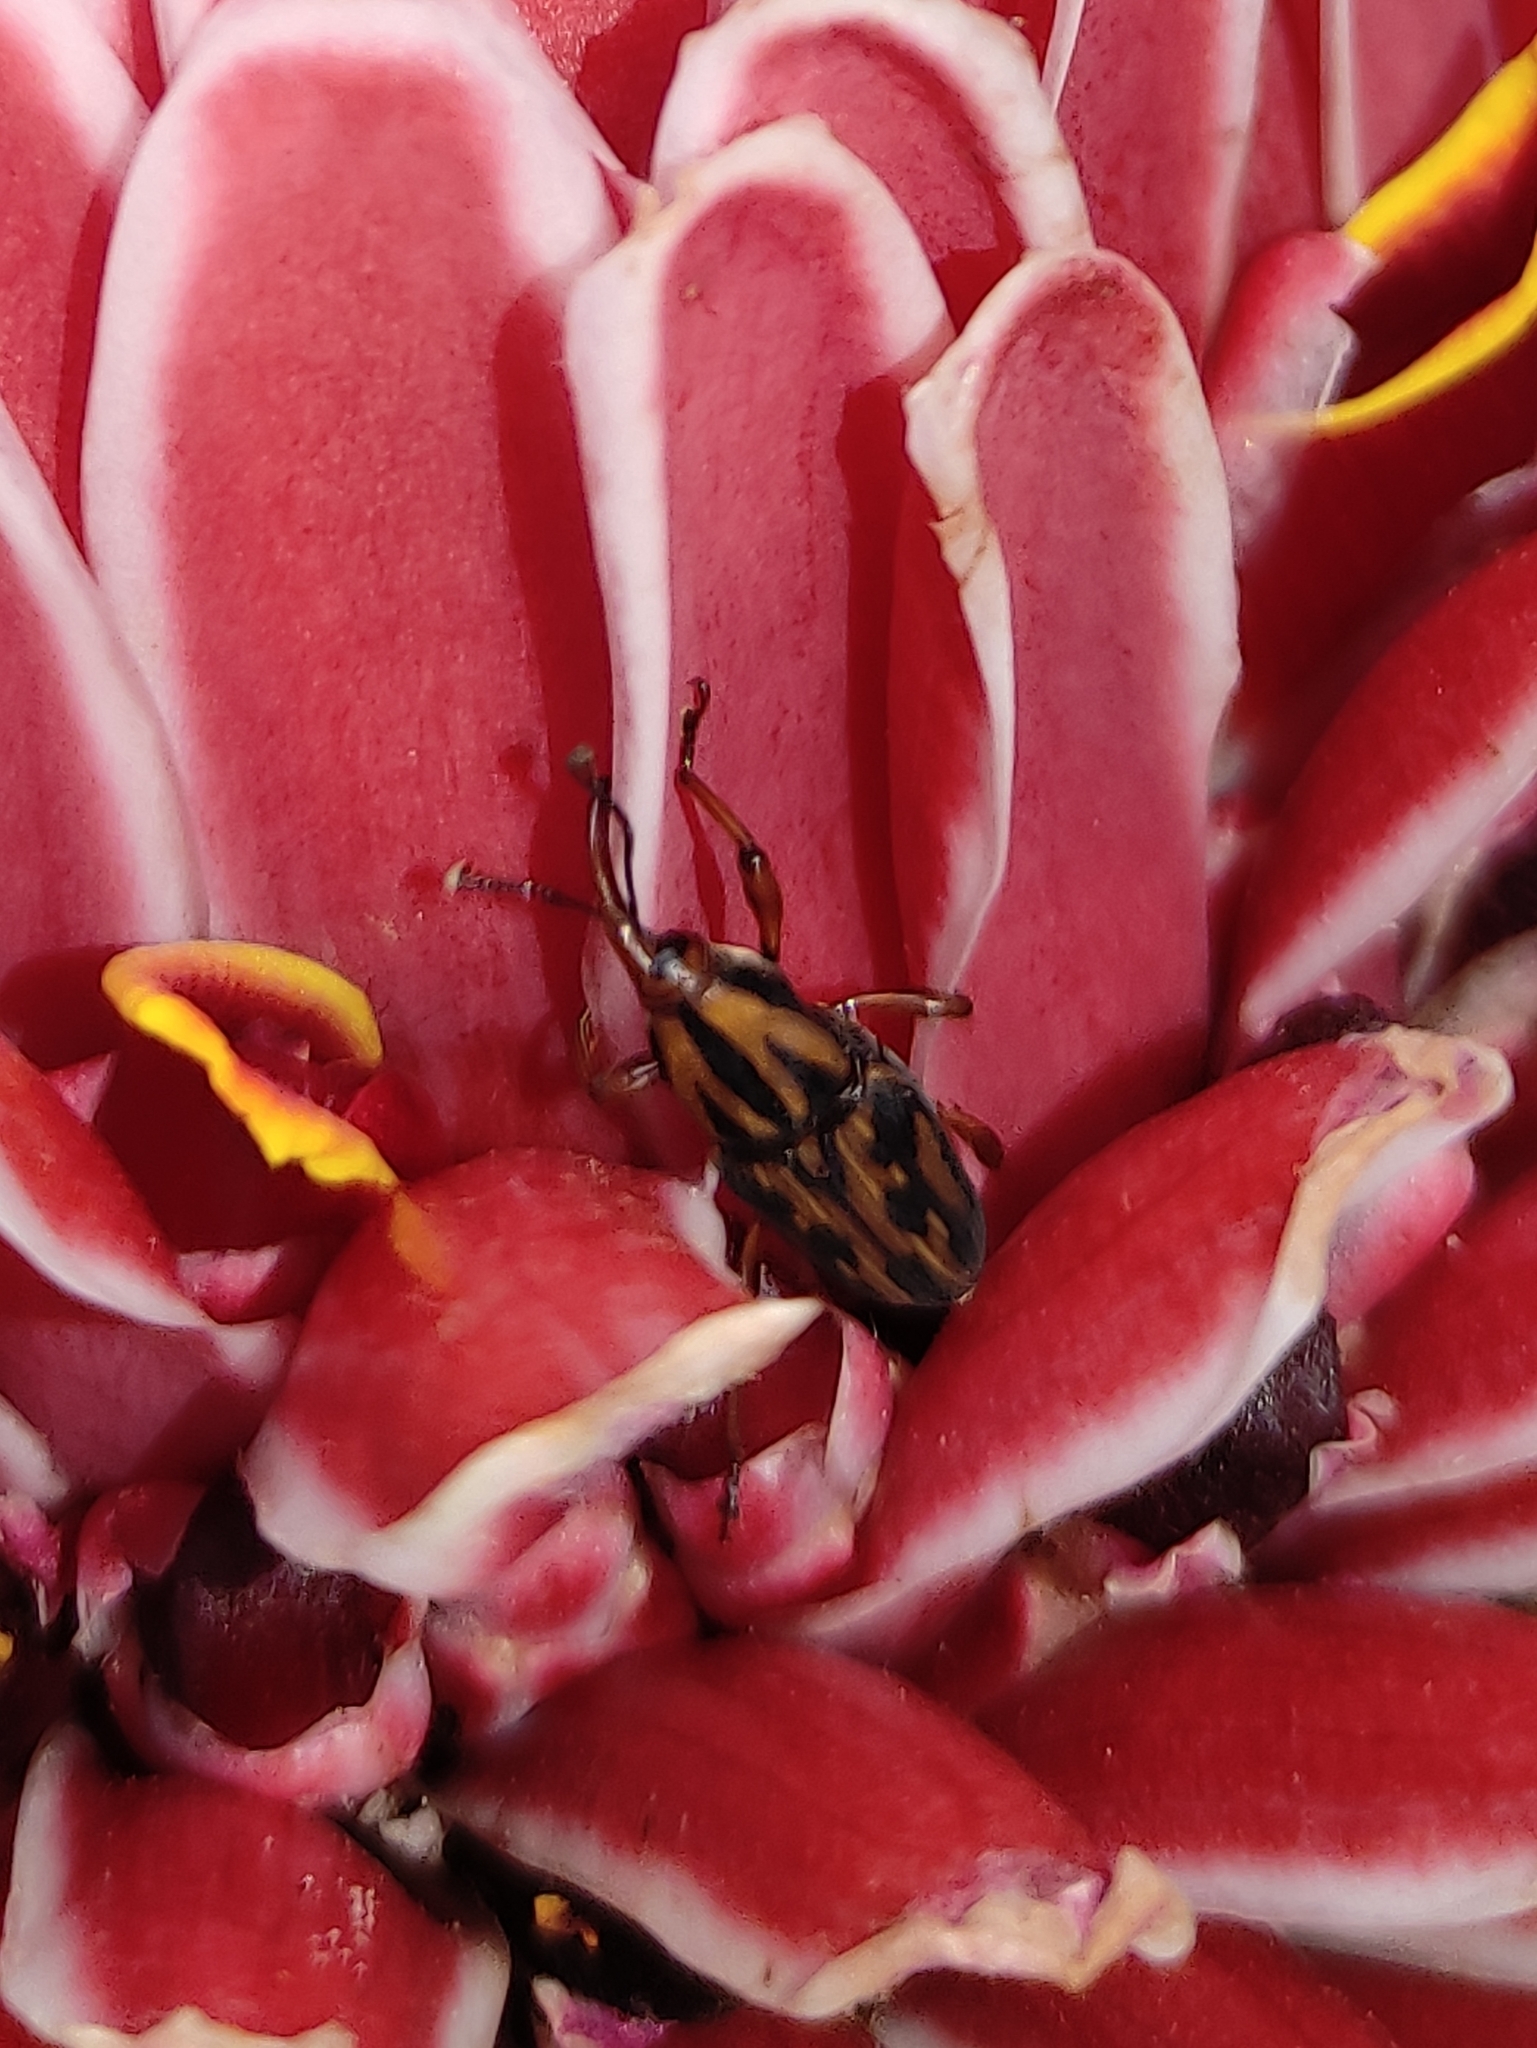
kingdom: Animalia
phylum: Arthropoda
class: Insecta
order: Coleoptera
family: Dryophthoridae
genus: Metamasius
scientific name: Metamasius hemipterus
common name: Weevil
